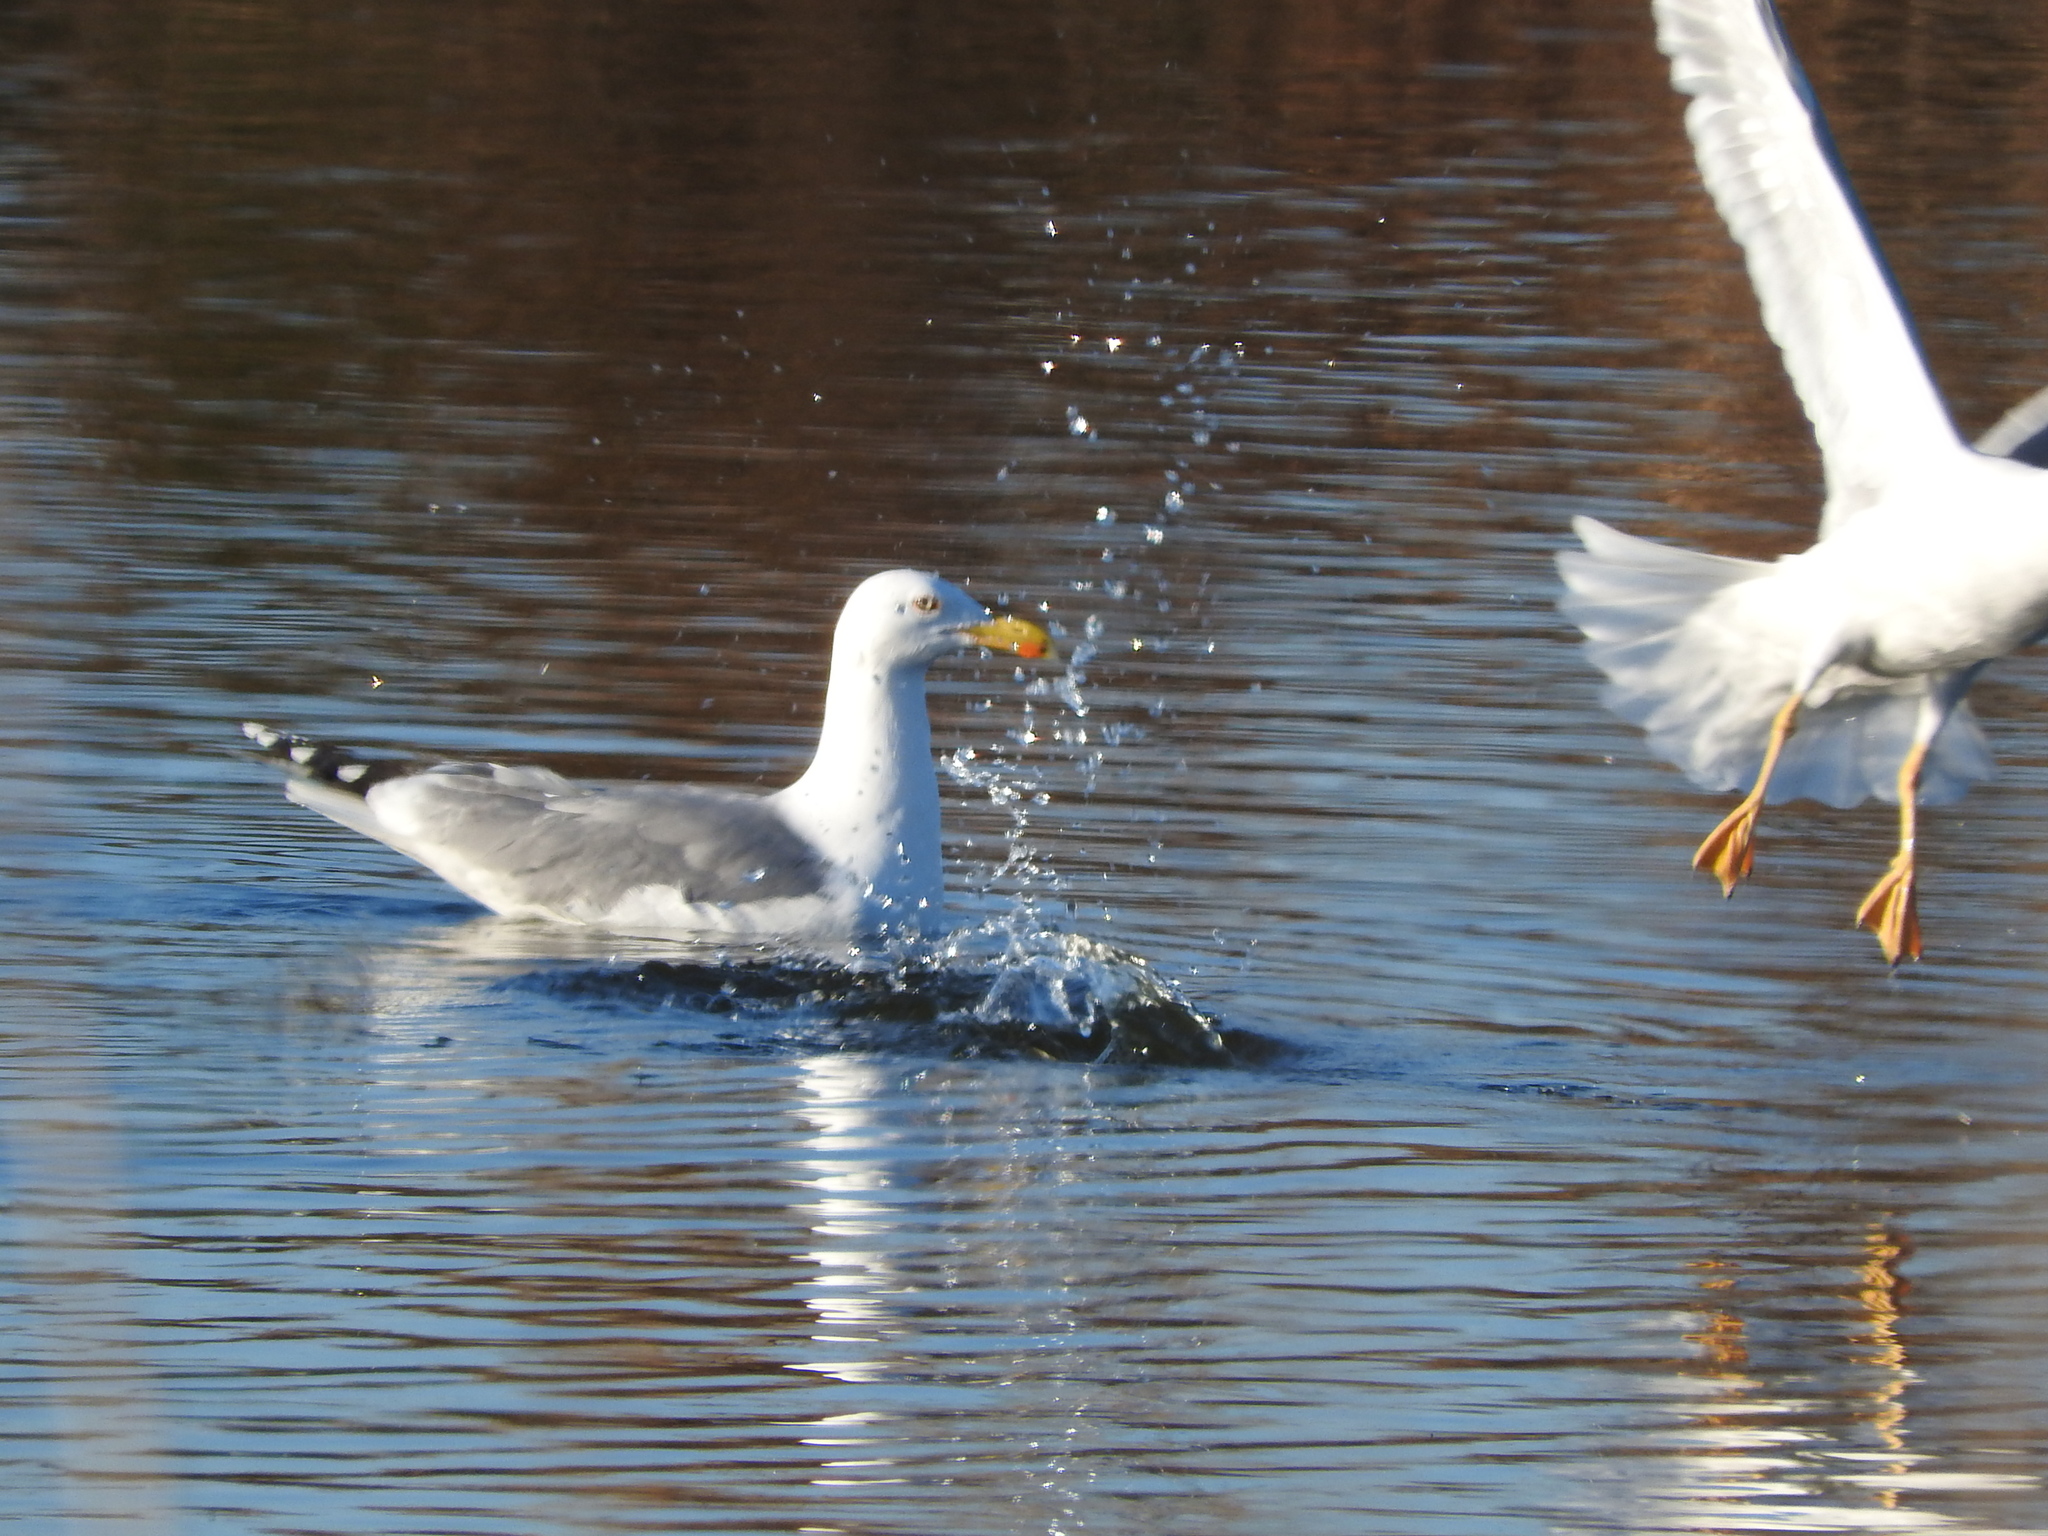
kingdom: Animalia
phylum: Chordata
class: Aves
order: Charadriiformes
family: Laridae
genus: Larus
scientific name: Larus michahellis
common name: Yellow-legged gull
